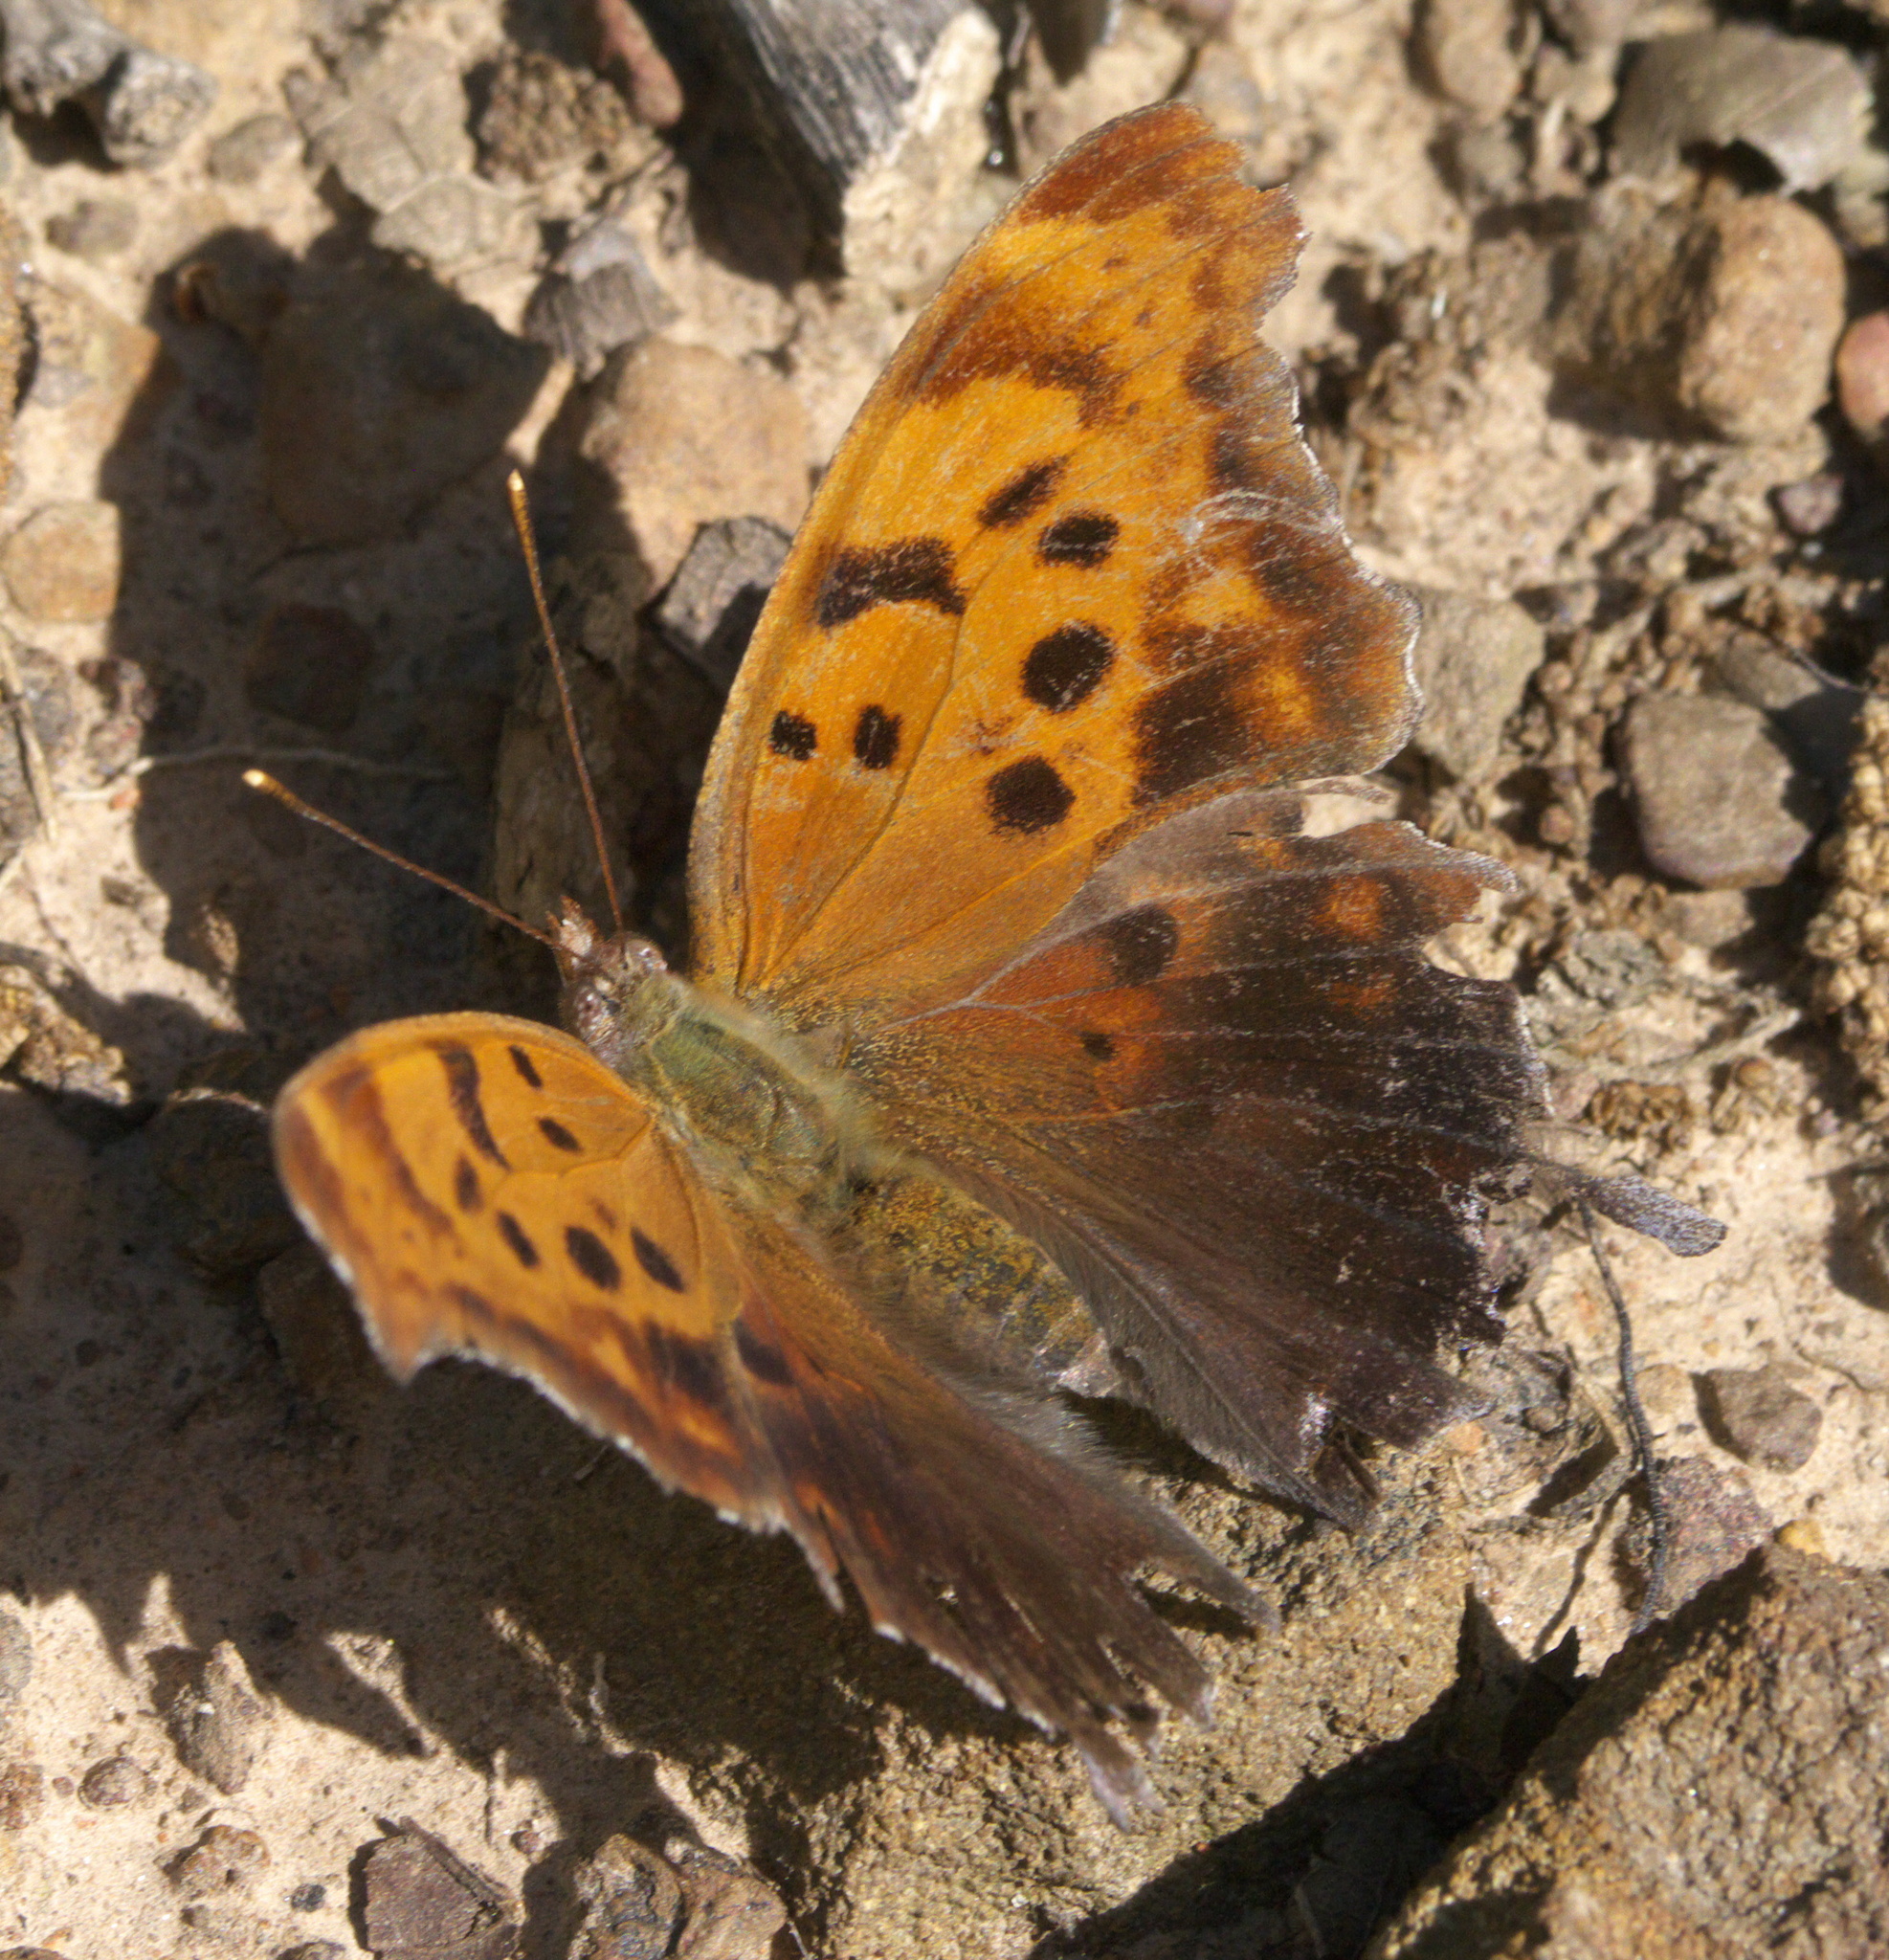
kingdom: Animalia
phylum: Arthropoda
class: Insecta
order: Lepidoptera
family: Nymphalidae
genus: Polygonia
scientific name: Polygonia interrogationis
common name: Question mark
